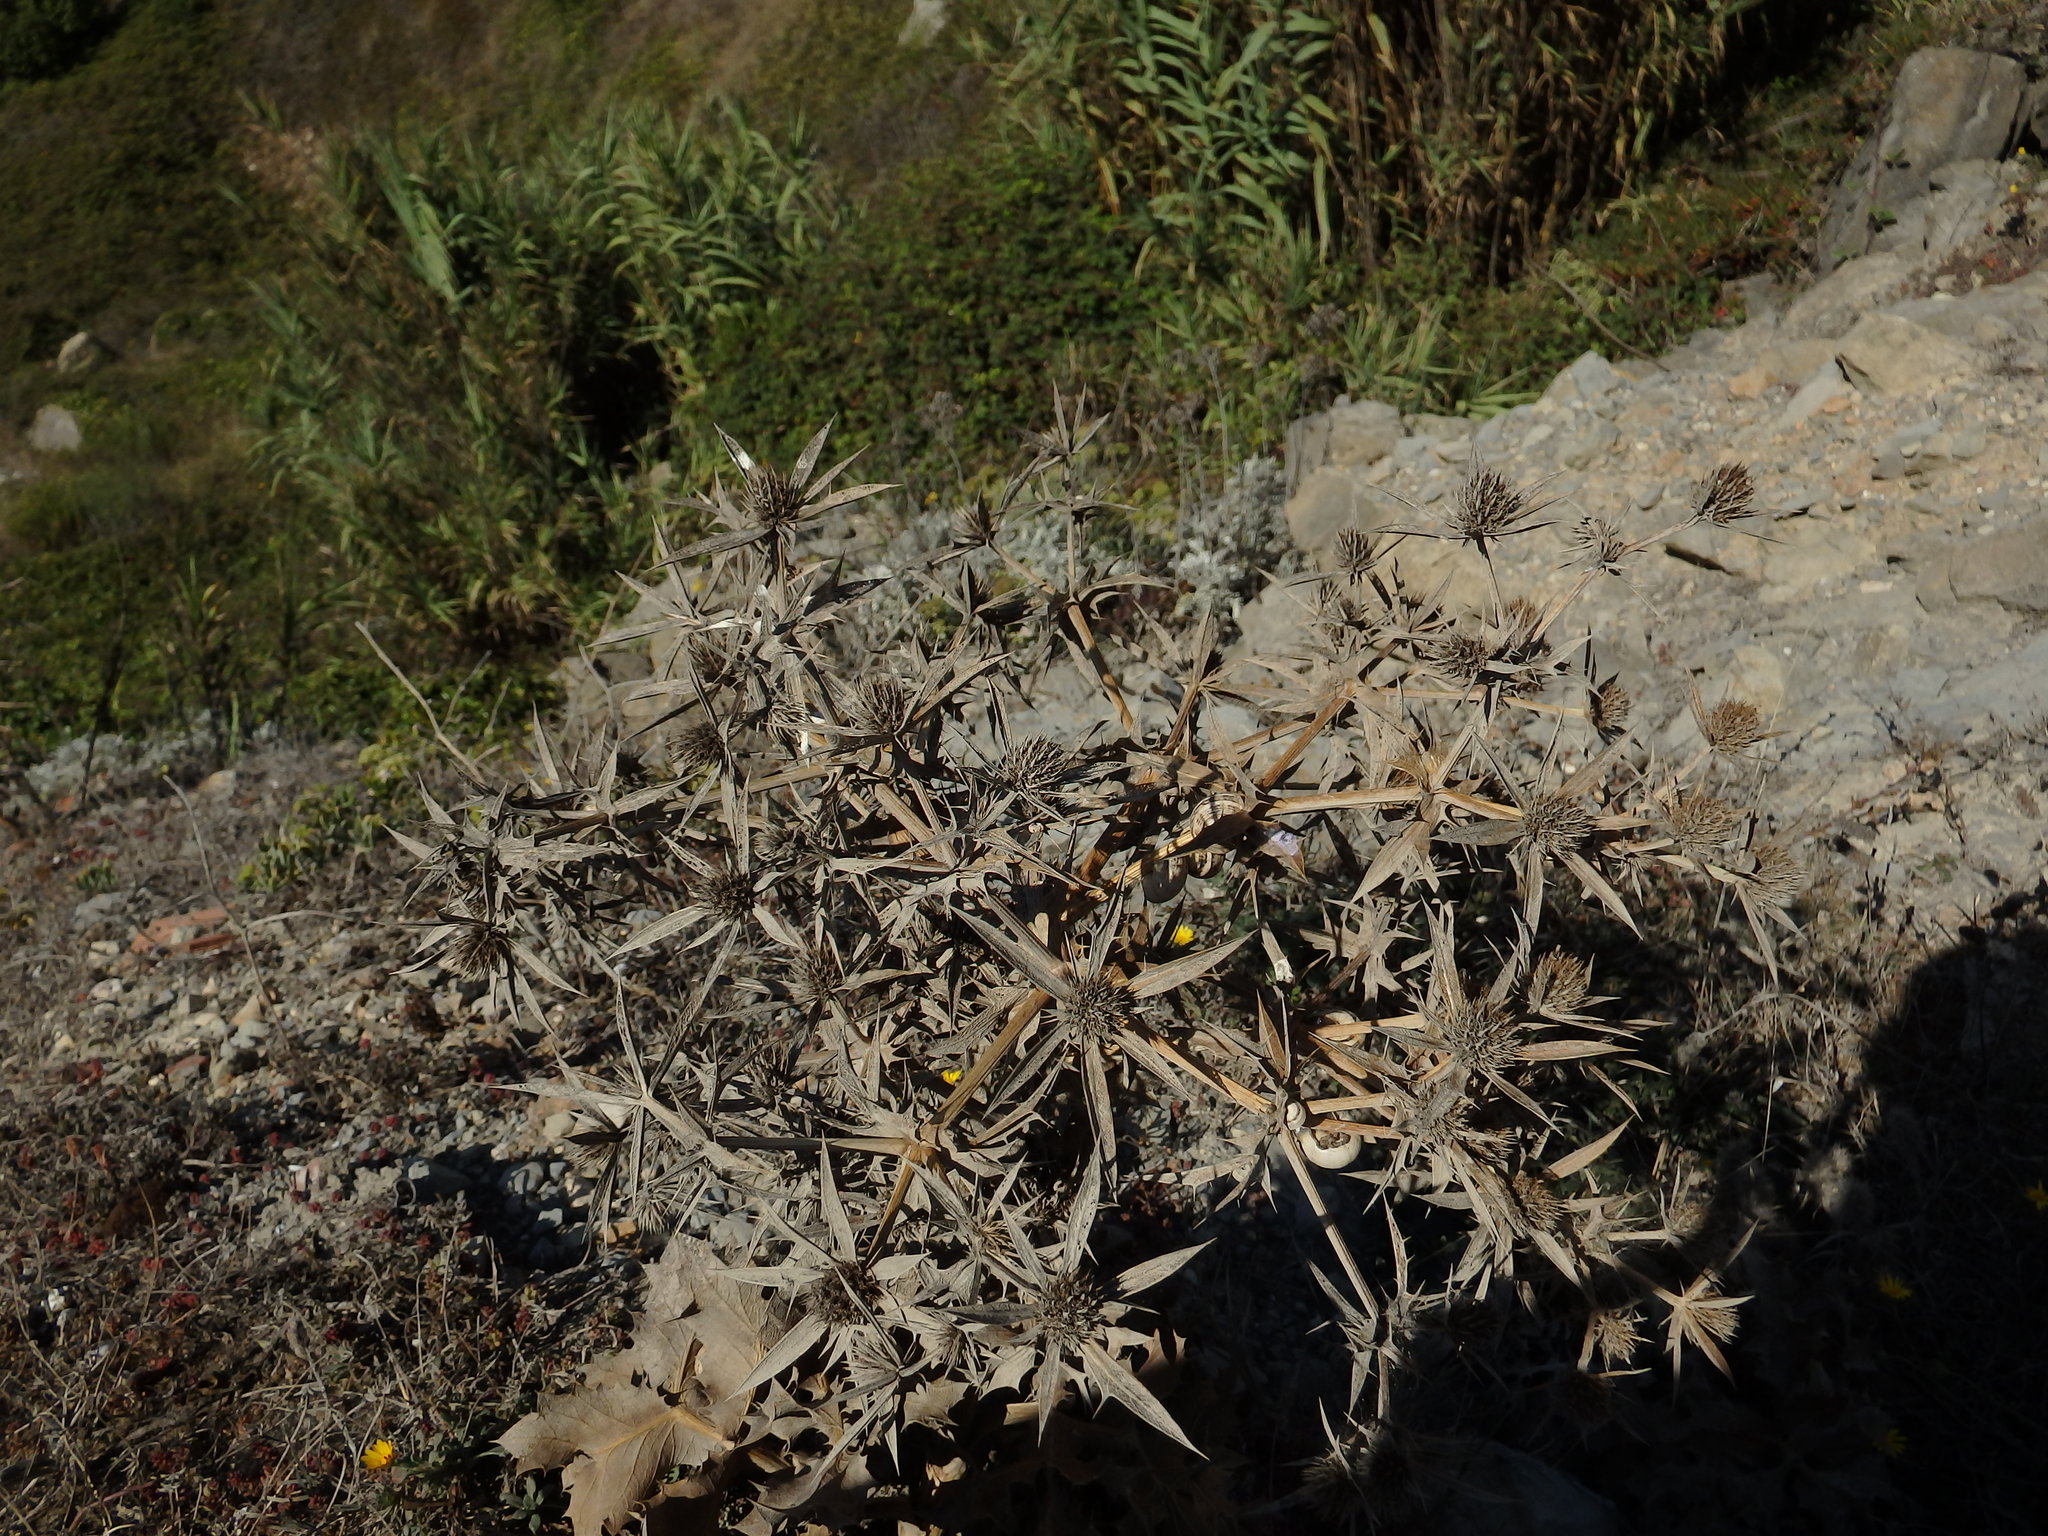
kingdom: Plantae
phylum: Tracheophyta
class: Magnoliopsida
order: Apiales
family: Apiaceae
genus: Eryngium
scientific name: Eryngium campestre
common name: Field eryngo
